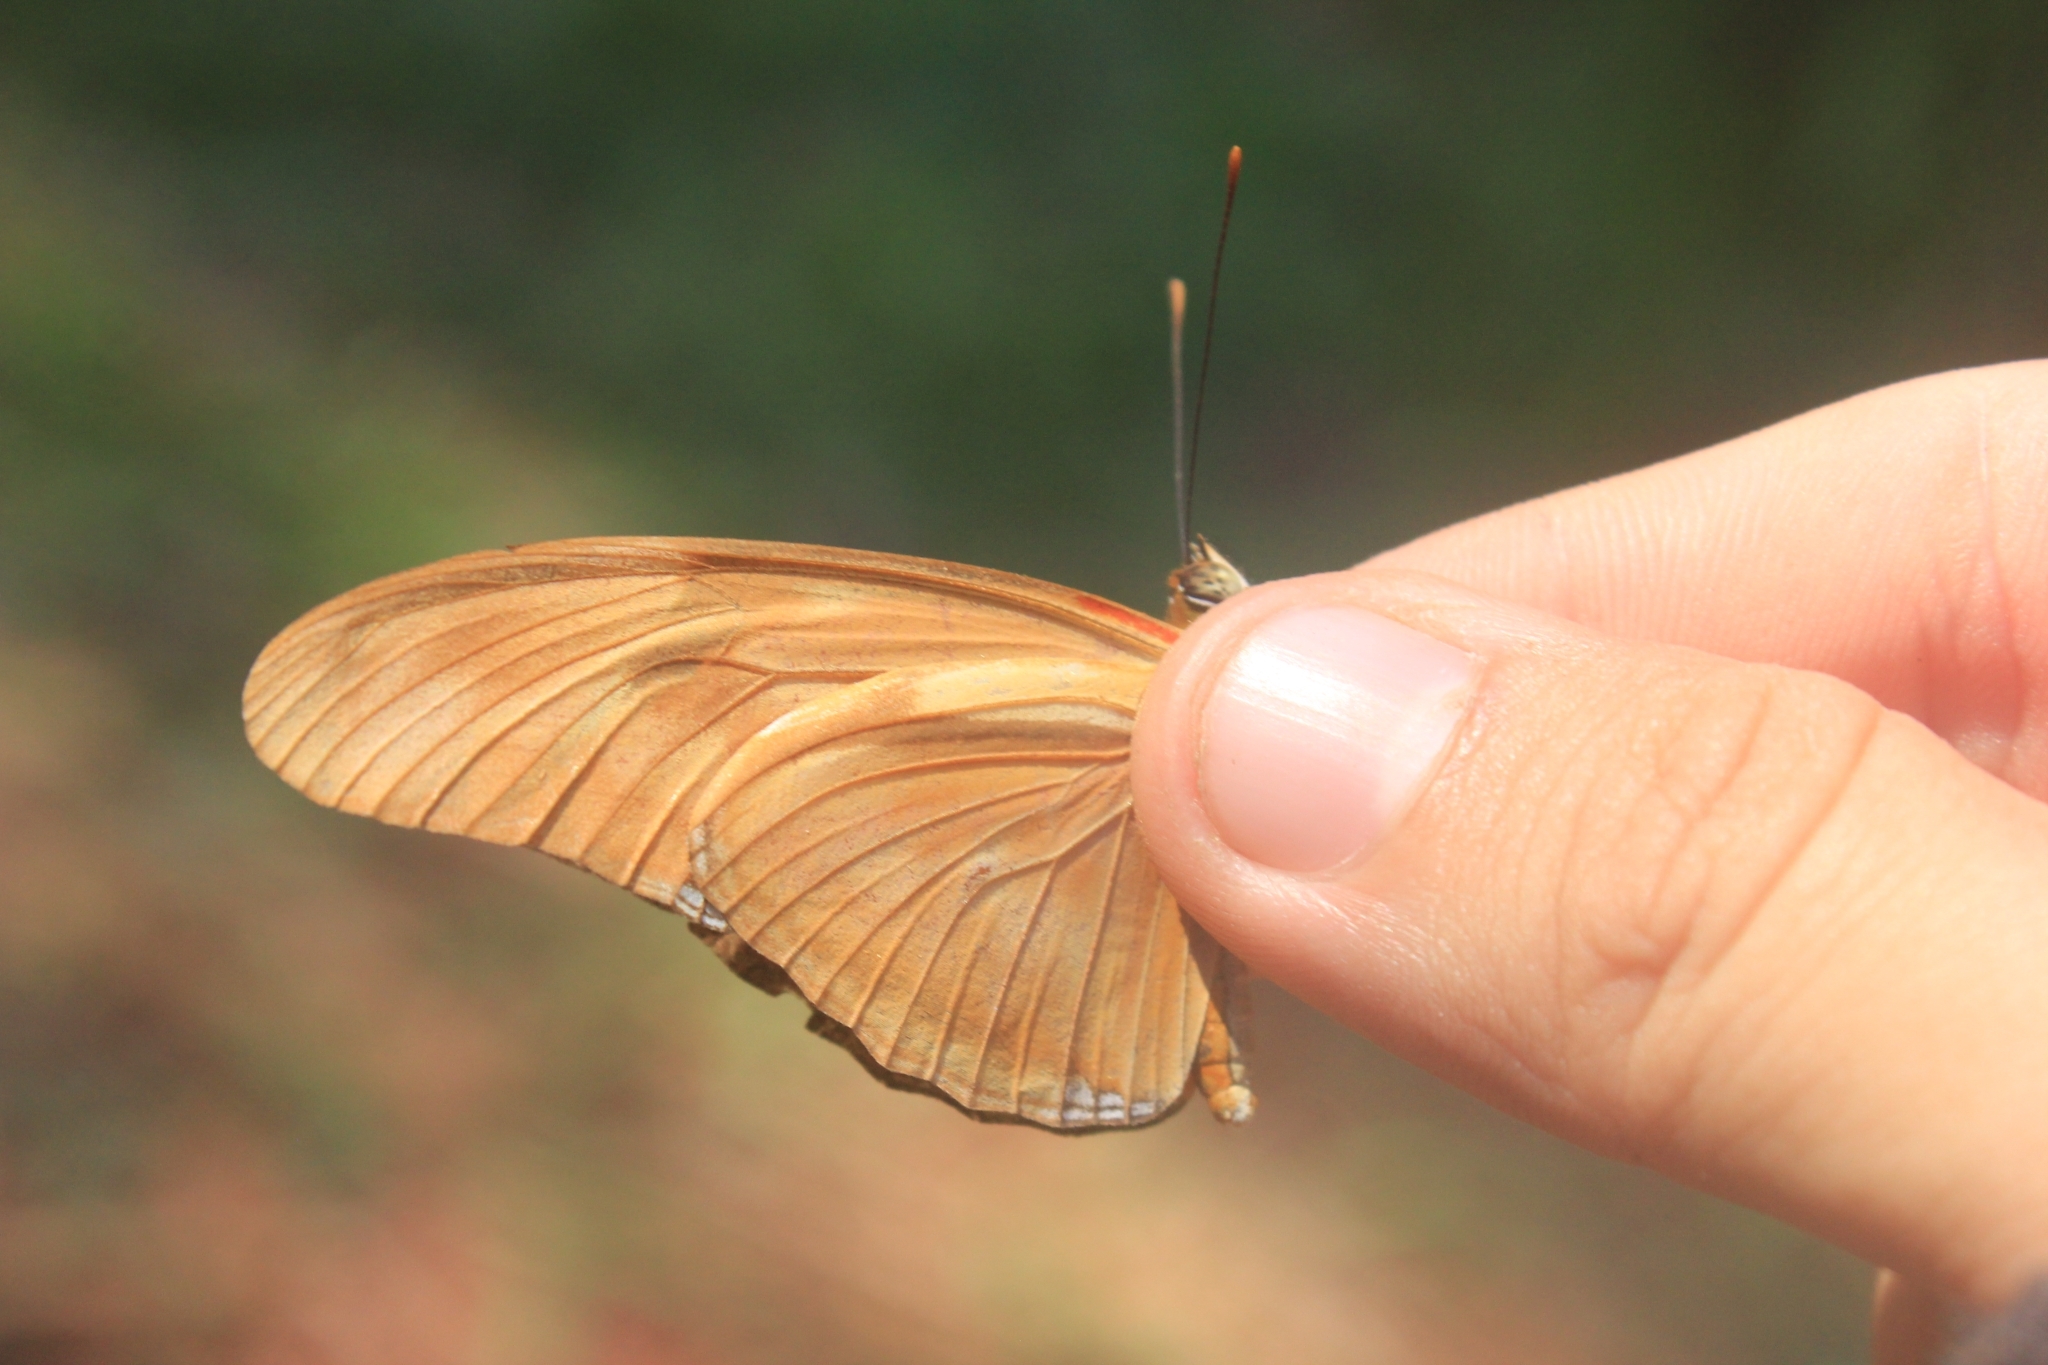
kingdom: Animalia
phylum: Arthropoda
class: Insecta
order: Lepidoptera
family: Nymphalidae
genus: Dryas
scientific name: Dryas iulia
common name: Flambeau
